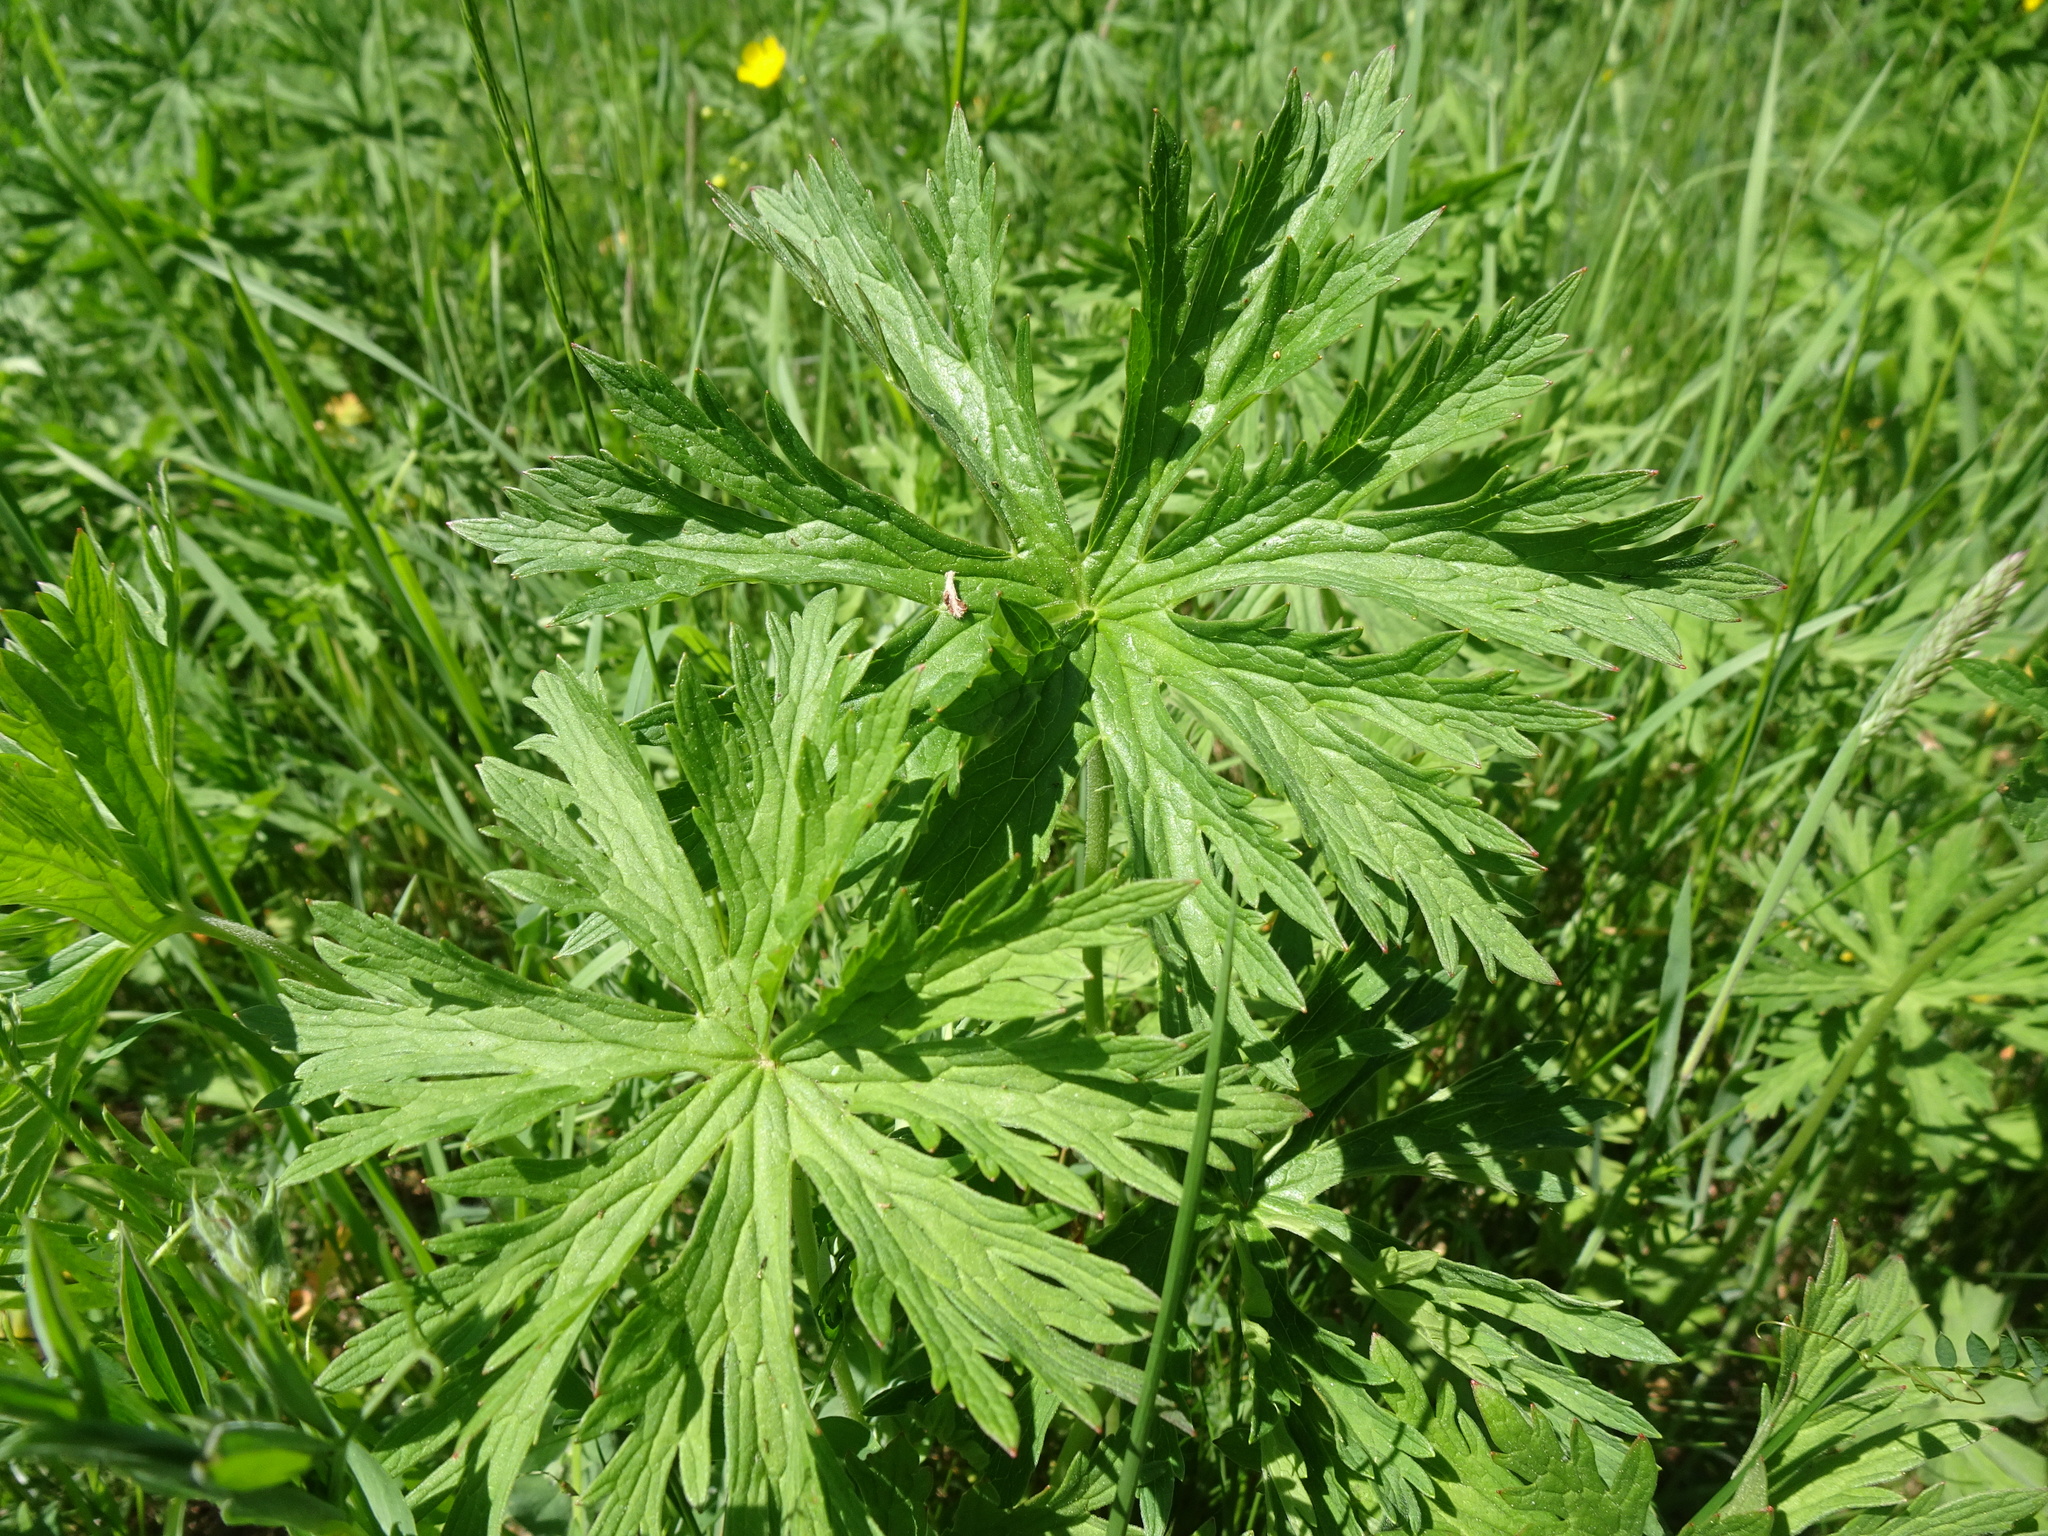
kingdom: Plantae
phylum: Tracheophyta
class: Magnoliopsida
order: Geraniales
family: Geraniaceae
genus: Geranium
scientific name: Geranium pratense
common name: Meadow crane's-bill
